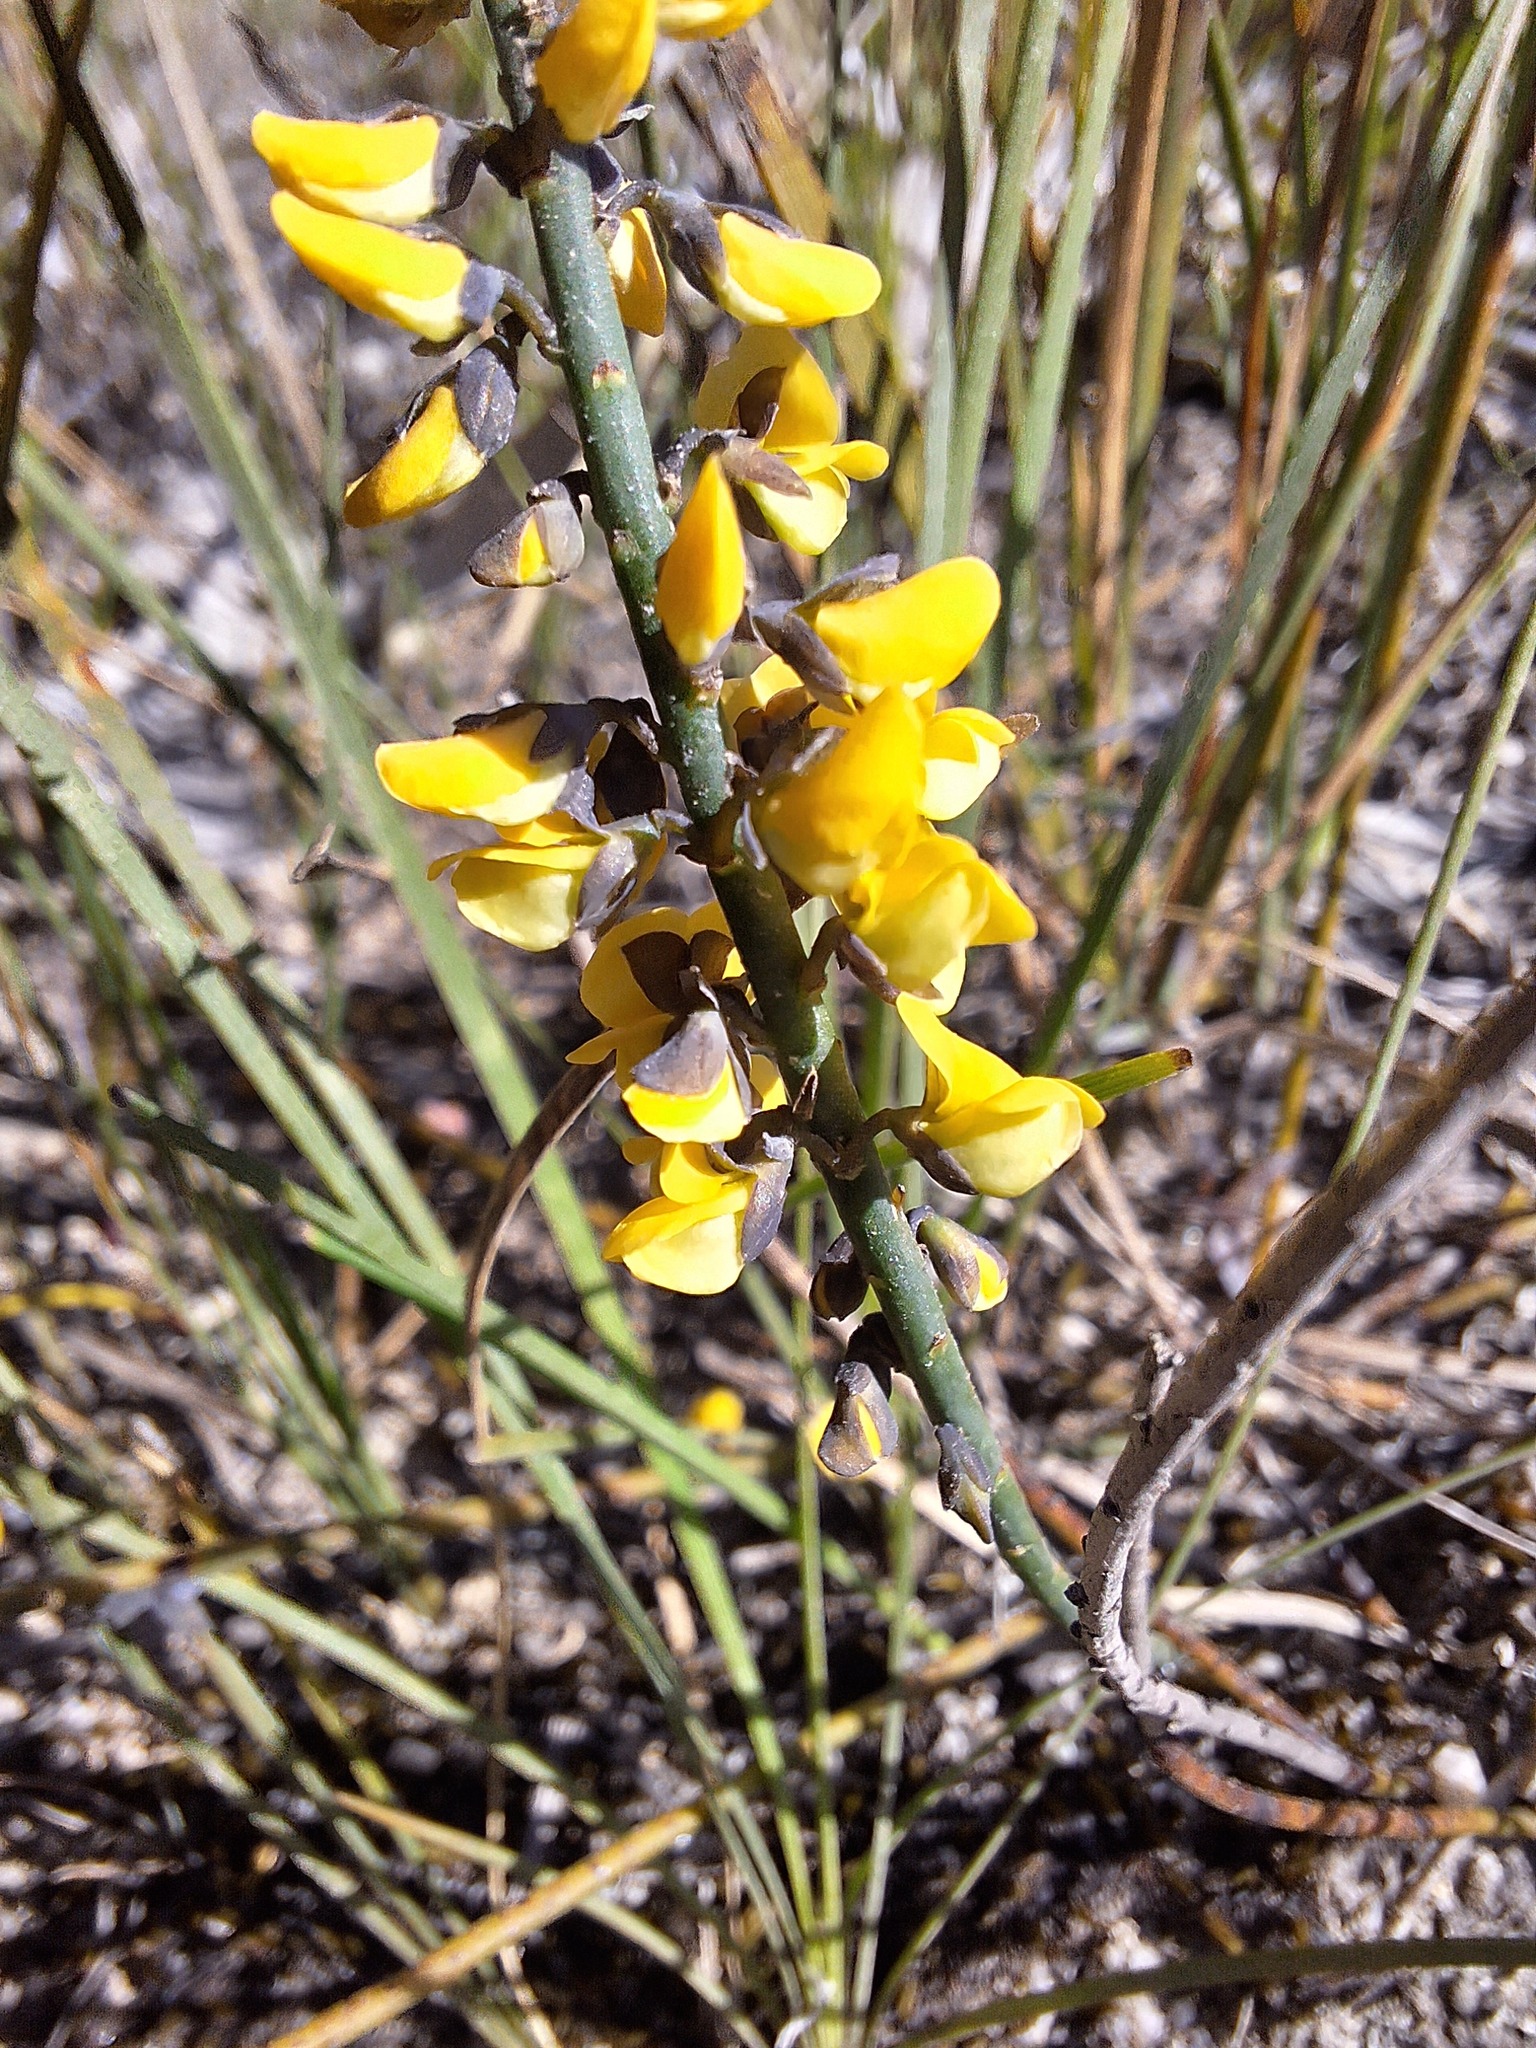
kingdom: Plantae
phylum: Tracheophyta
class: Magnoliopsida
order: Fabales
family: Fabaceae
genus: Sphaerolobium
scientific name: Sphaerolobium minus
